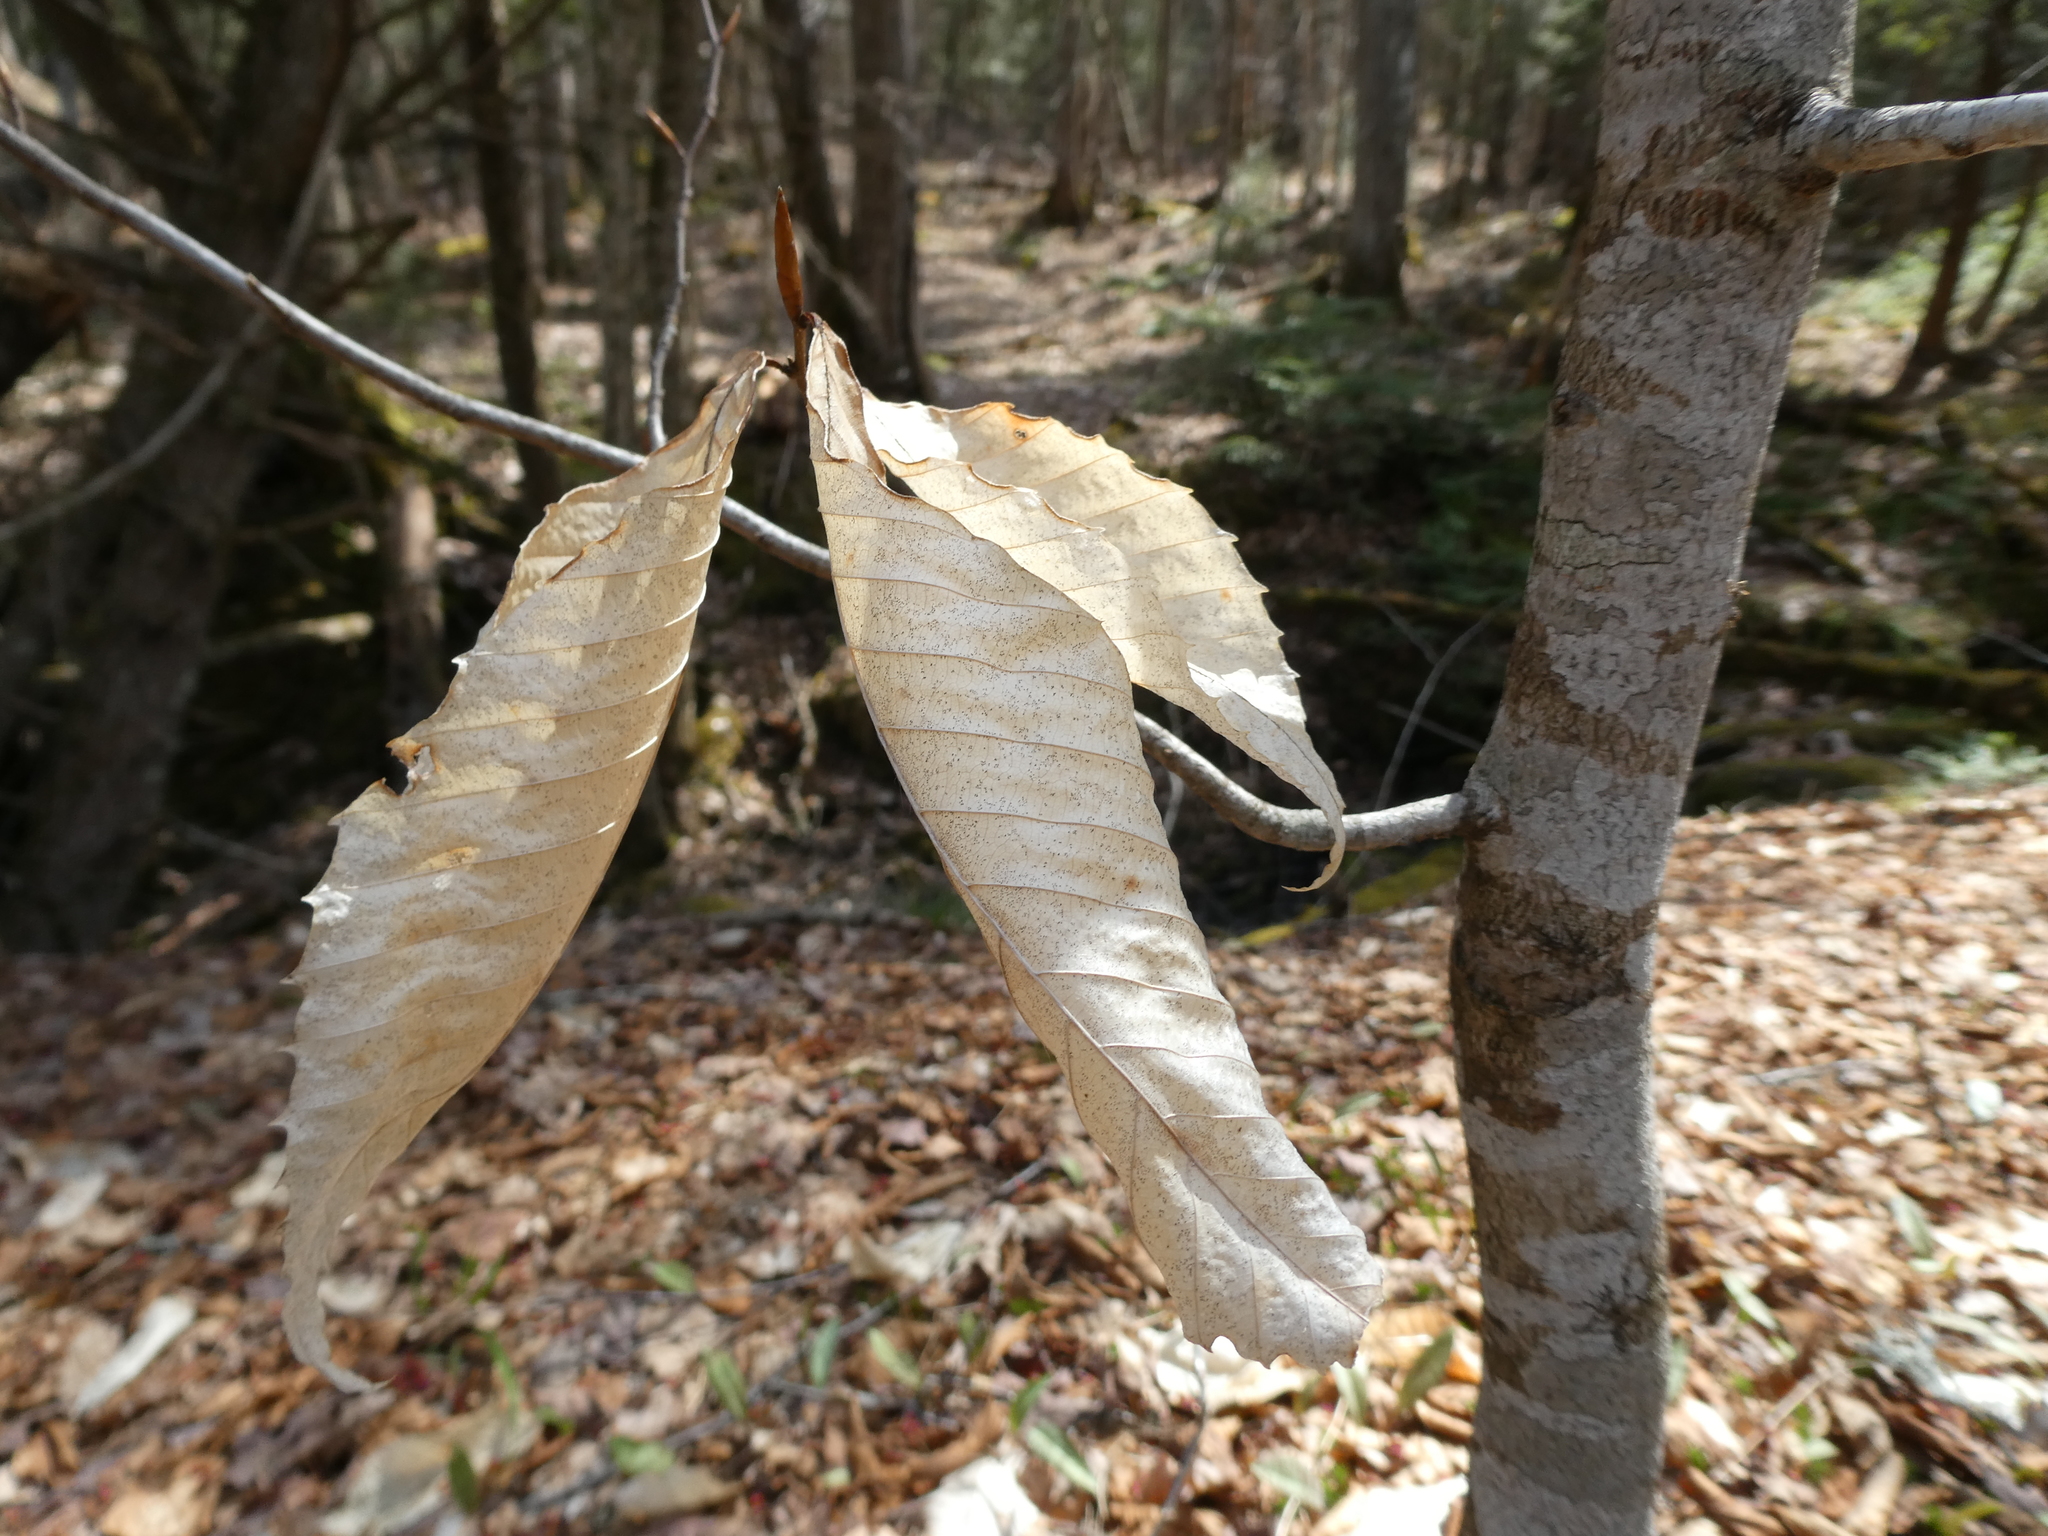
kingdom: Plantae
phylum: Tracheophyta
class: Magnoliopsida
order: Fagales
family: Fagaceae
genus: Fagus
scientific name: Fagus grandifolia
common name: American beech
